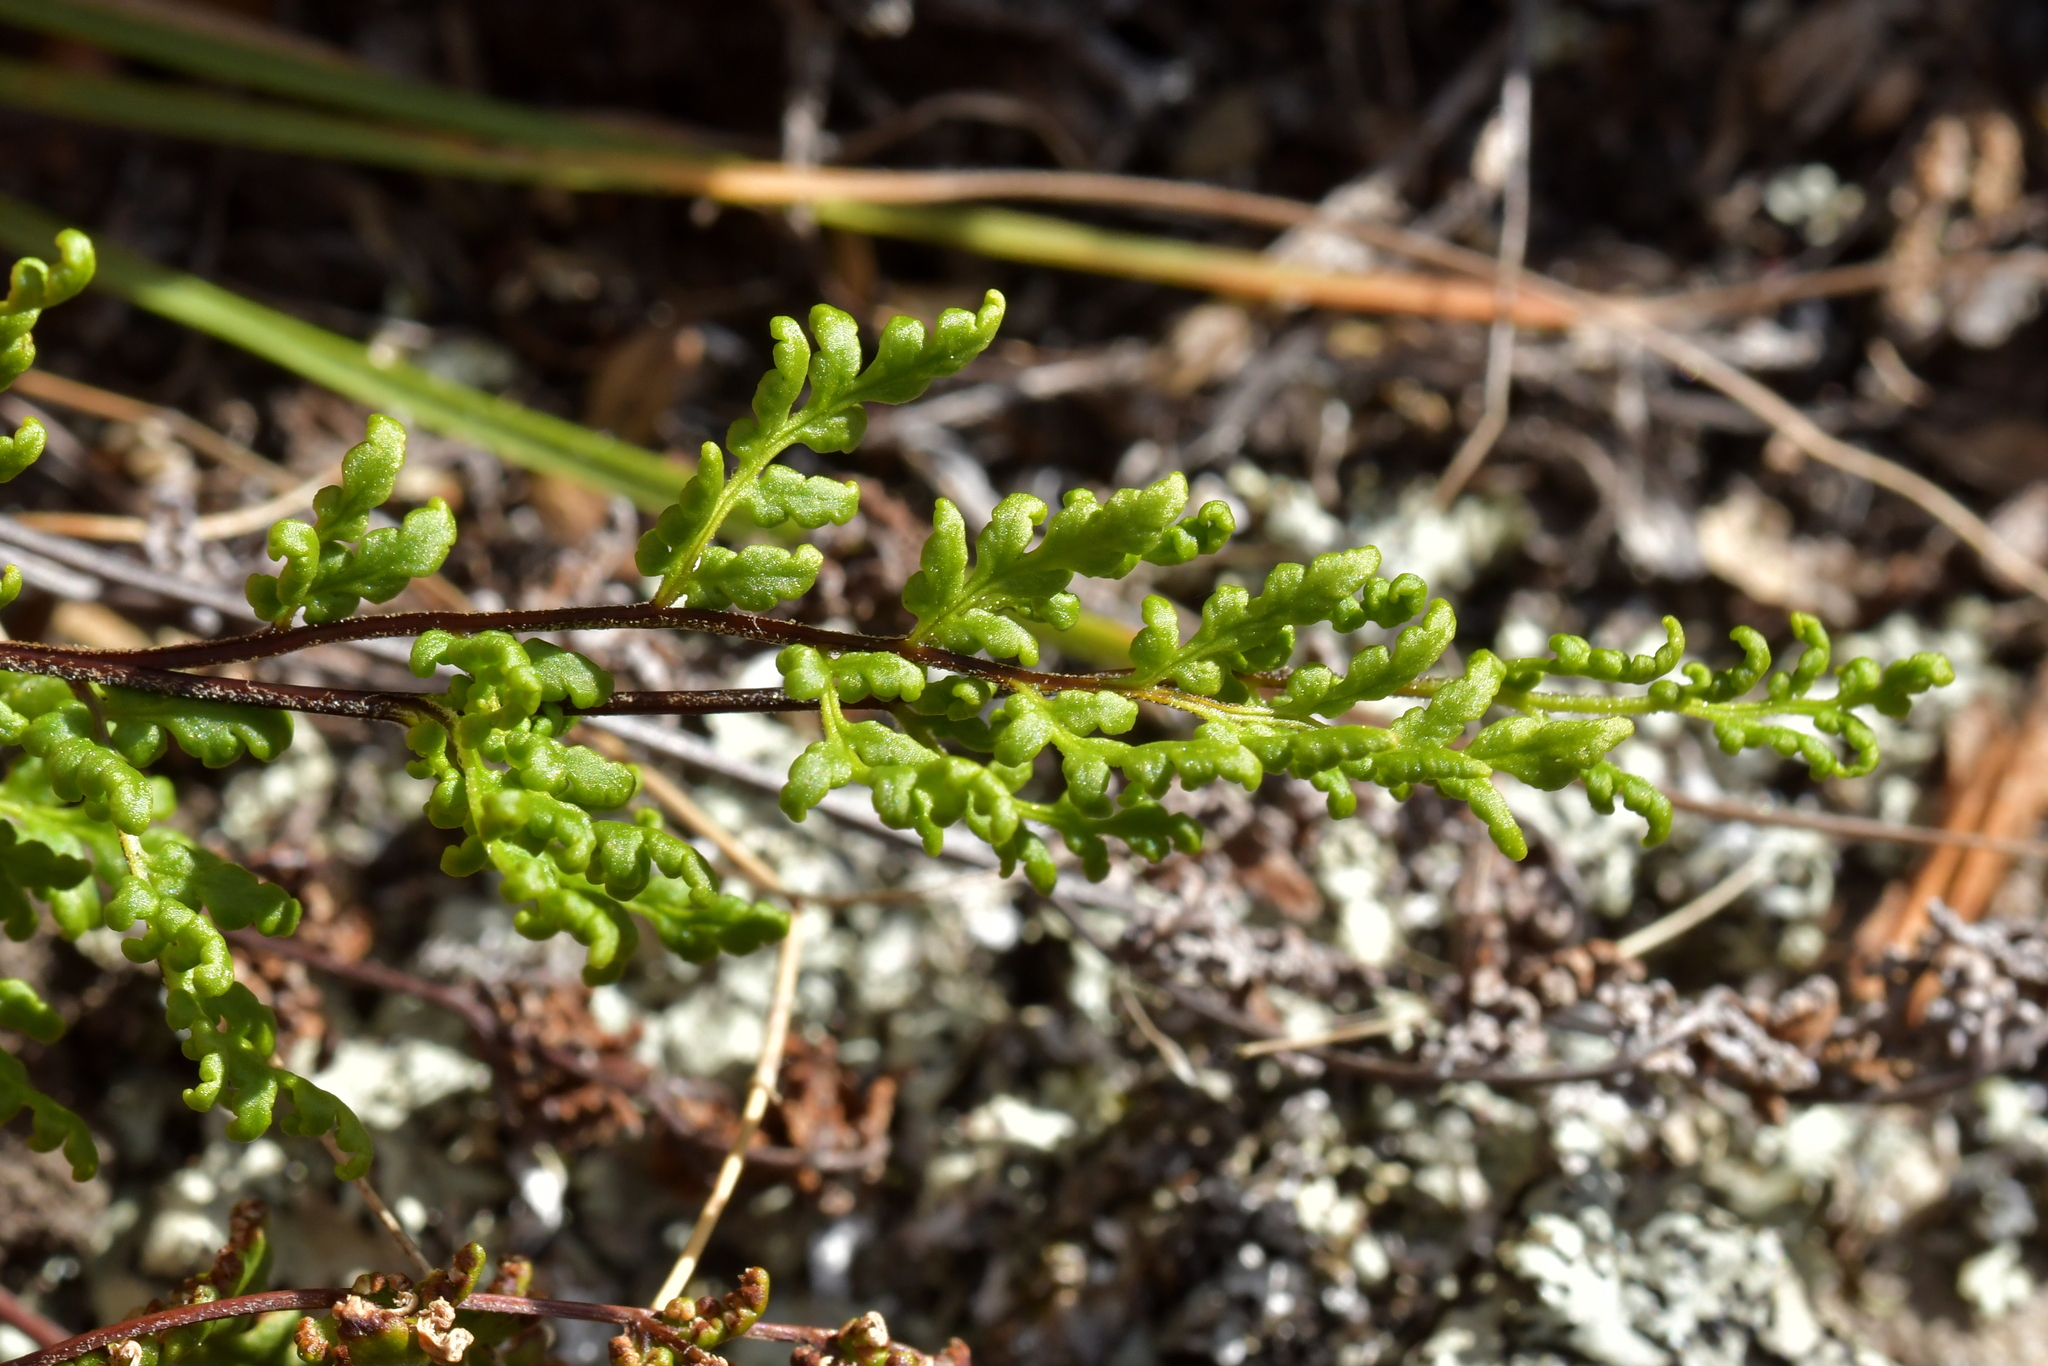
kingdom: Plantae
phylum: Tracheophyta
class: Polypodiopsida
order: Polypodiales
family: Pteridaceae
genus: Cheilanthes
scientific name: Cheilanthes sieberi
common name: Mulga fern
